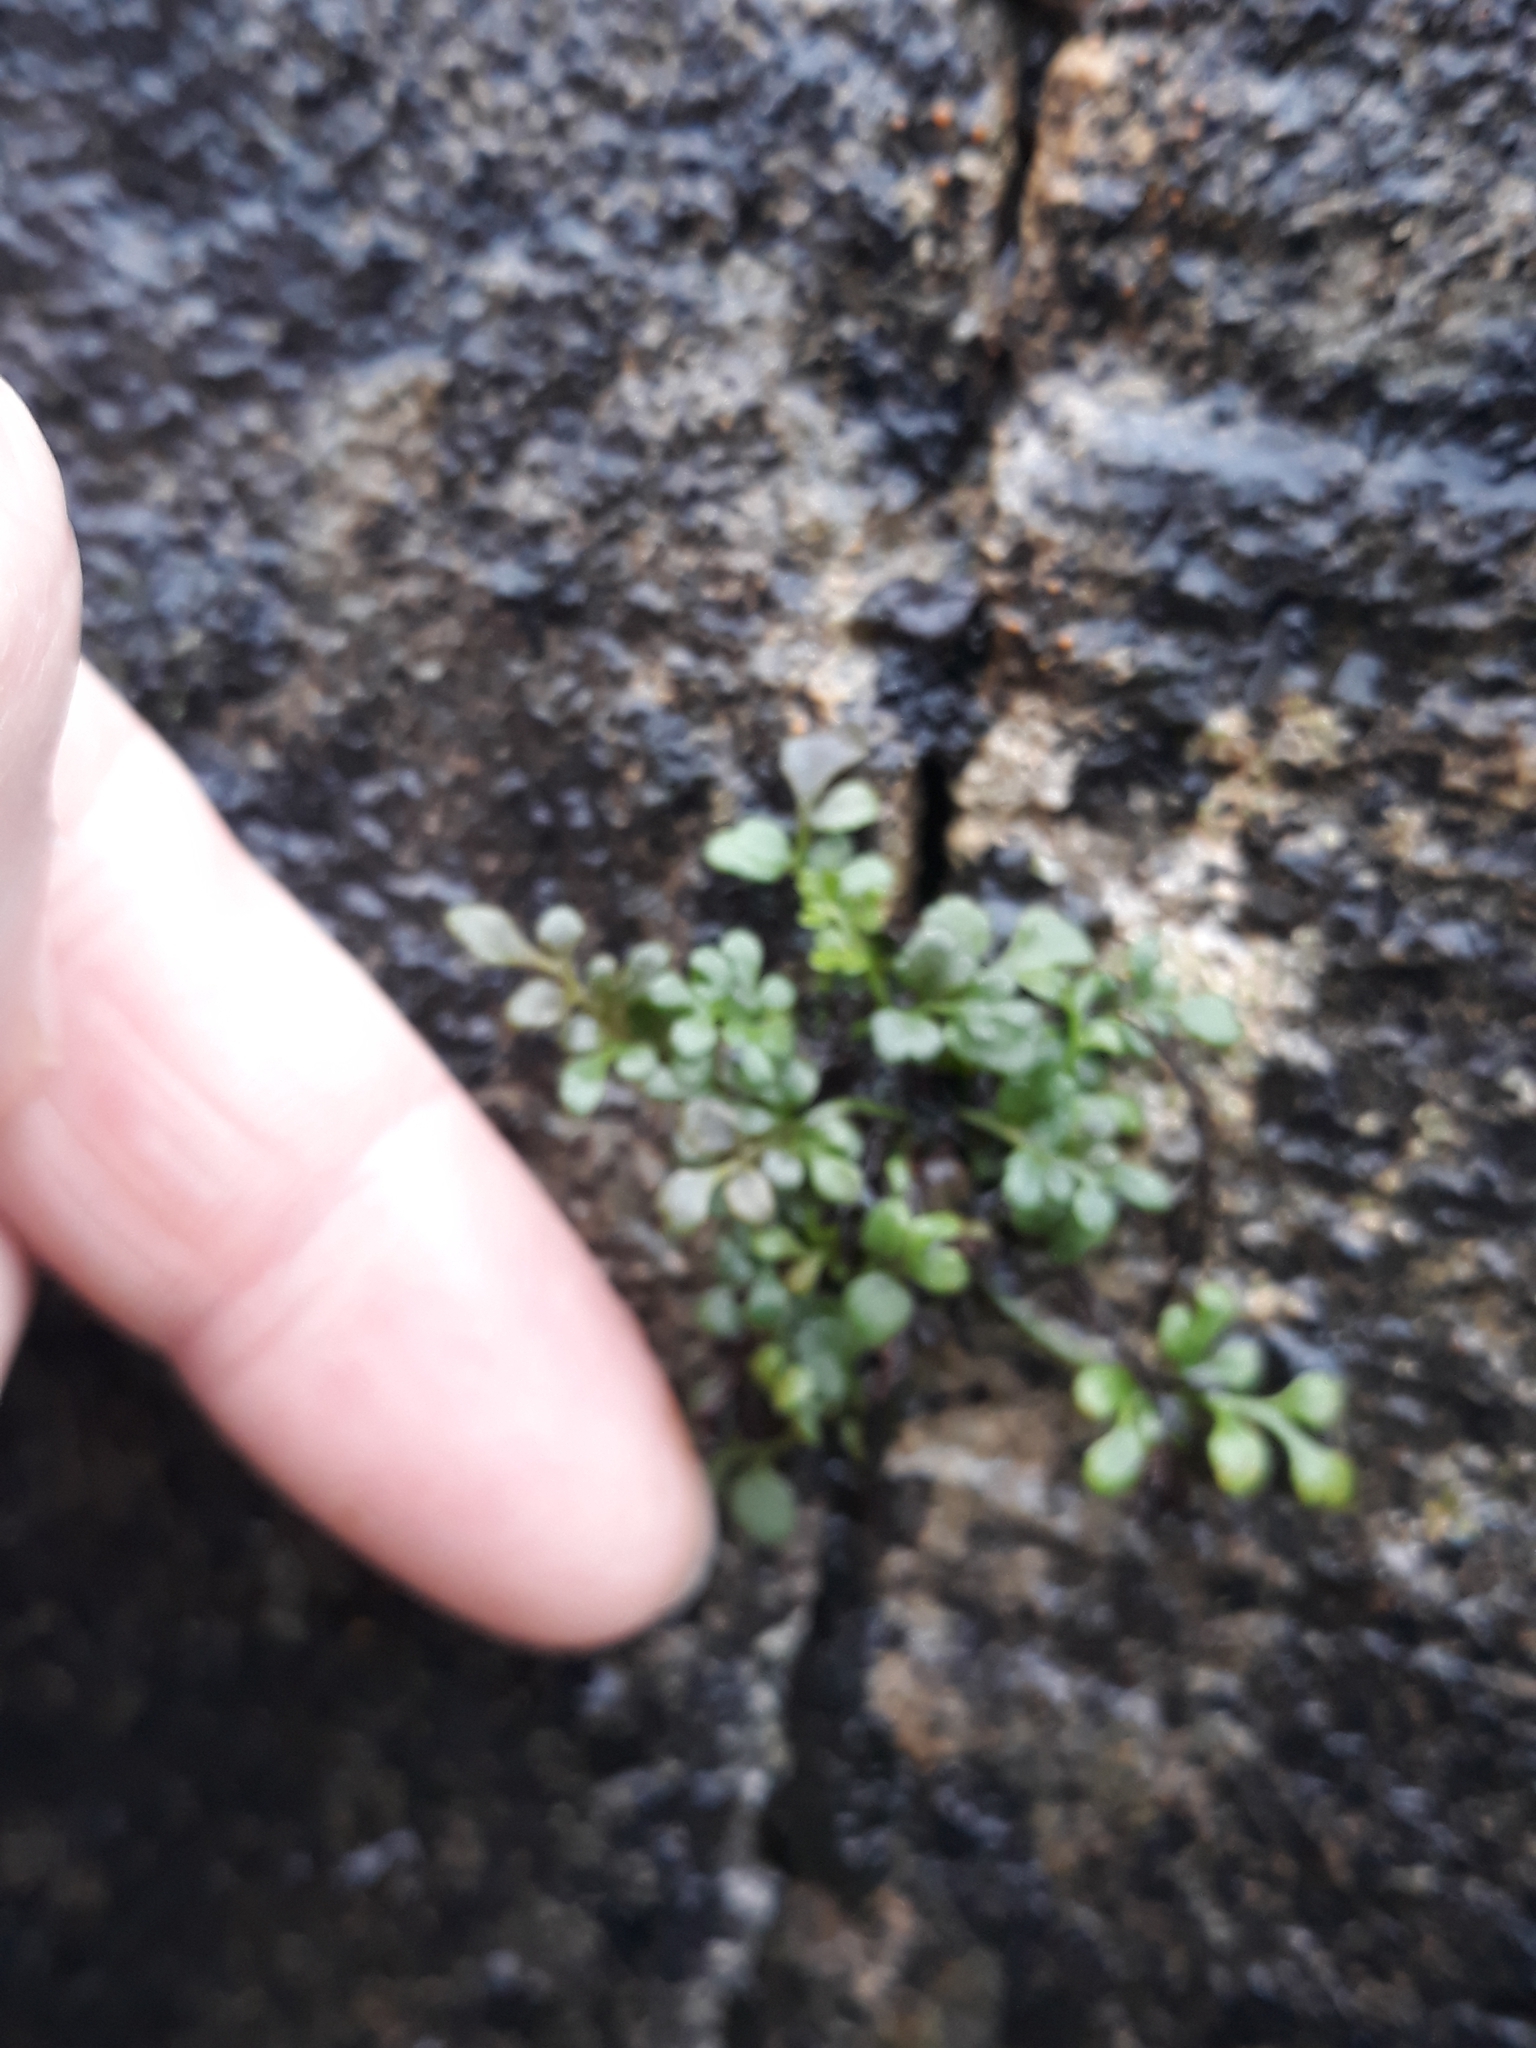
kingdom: Plantae
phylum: Tracheophyta
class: Polypodiopsida
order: Polypodiales
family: Aspleniaceae
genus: Asplenium
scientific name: Asplenium ruta-muraria
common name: Wall-rue
